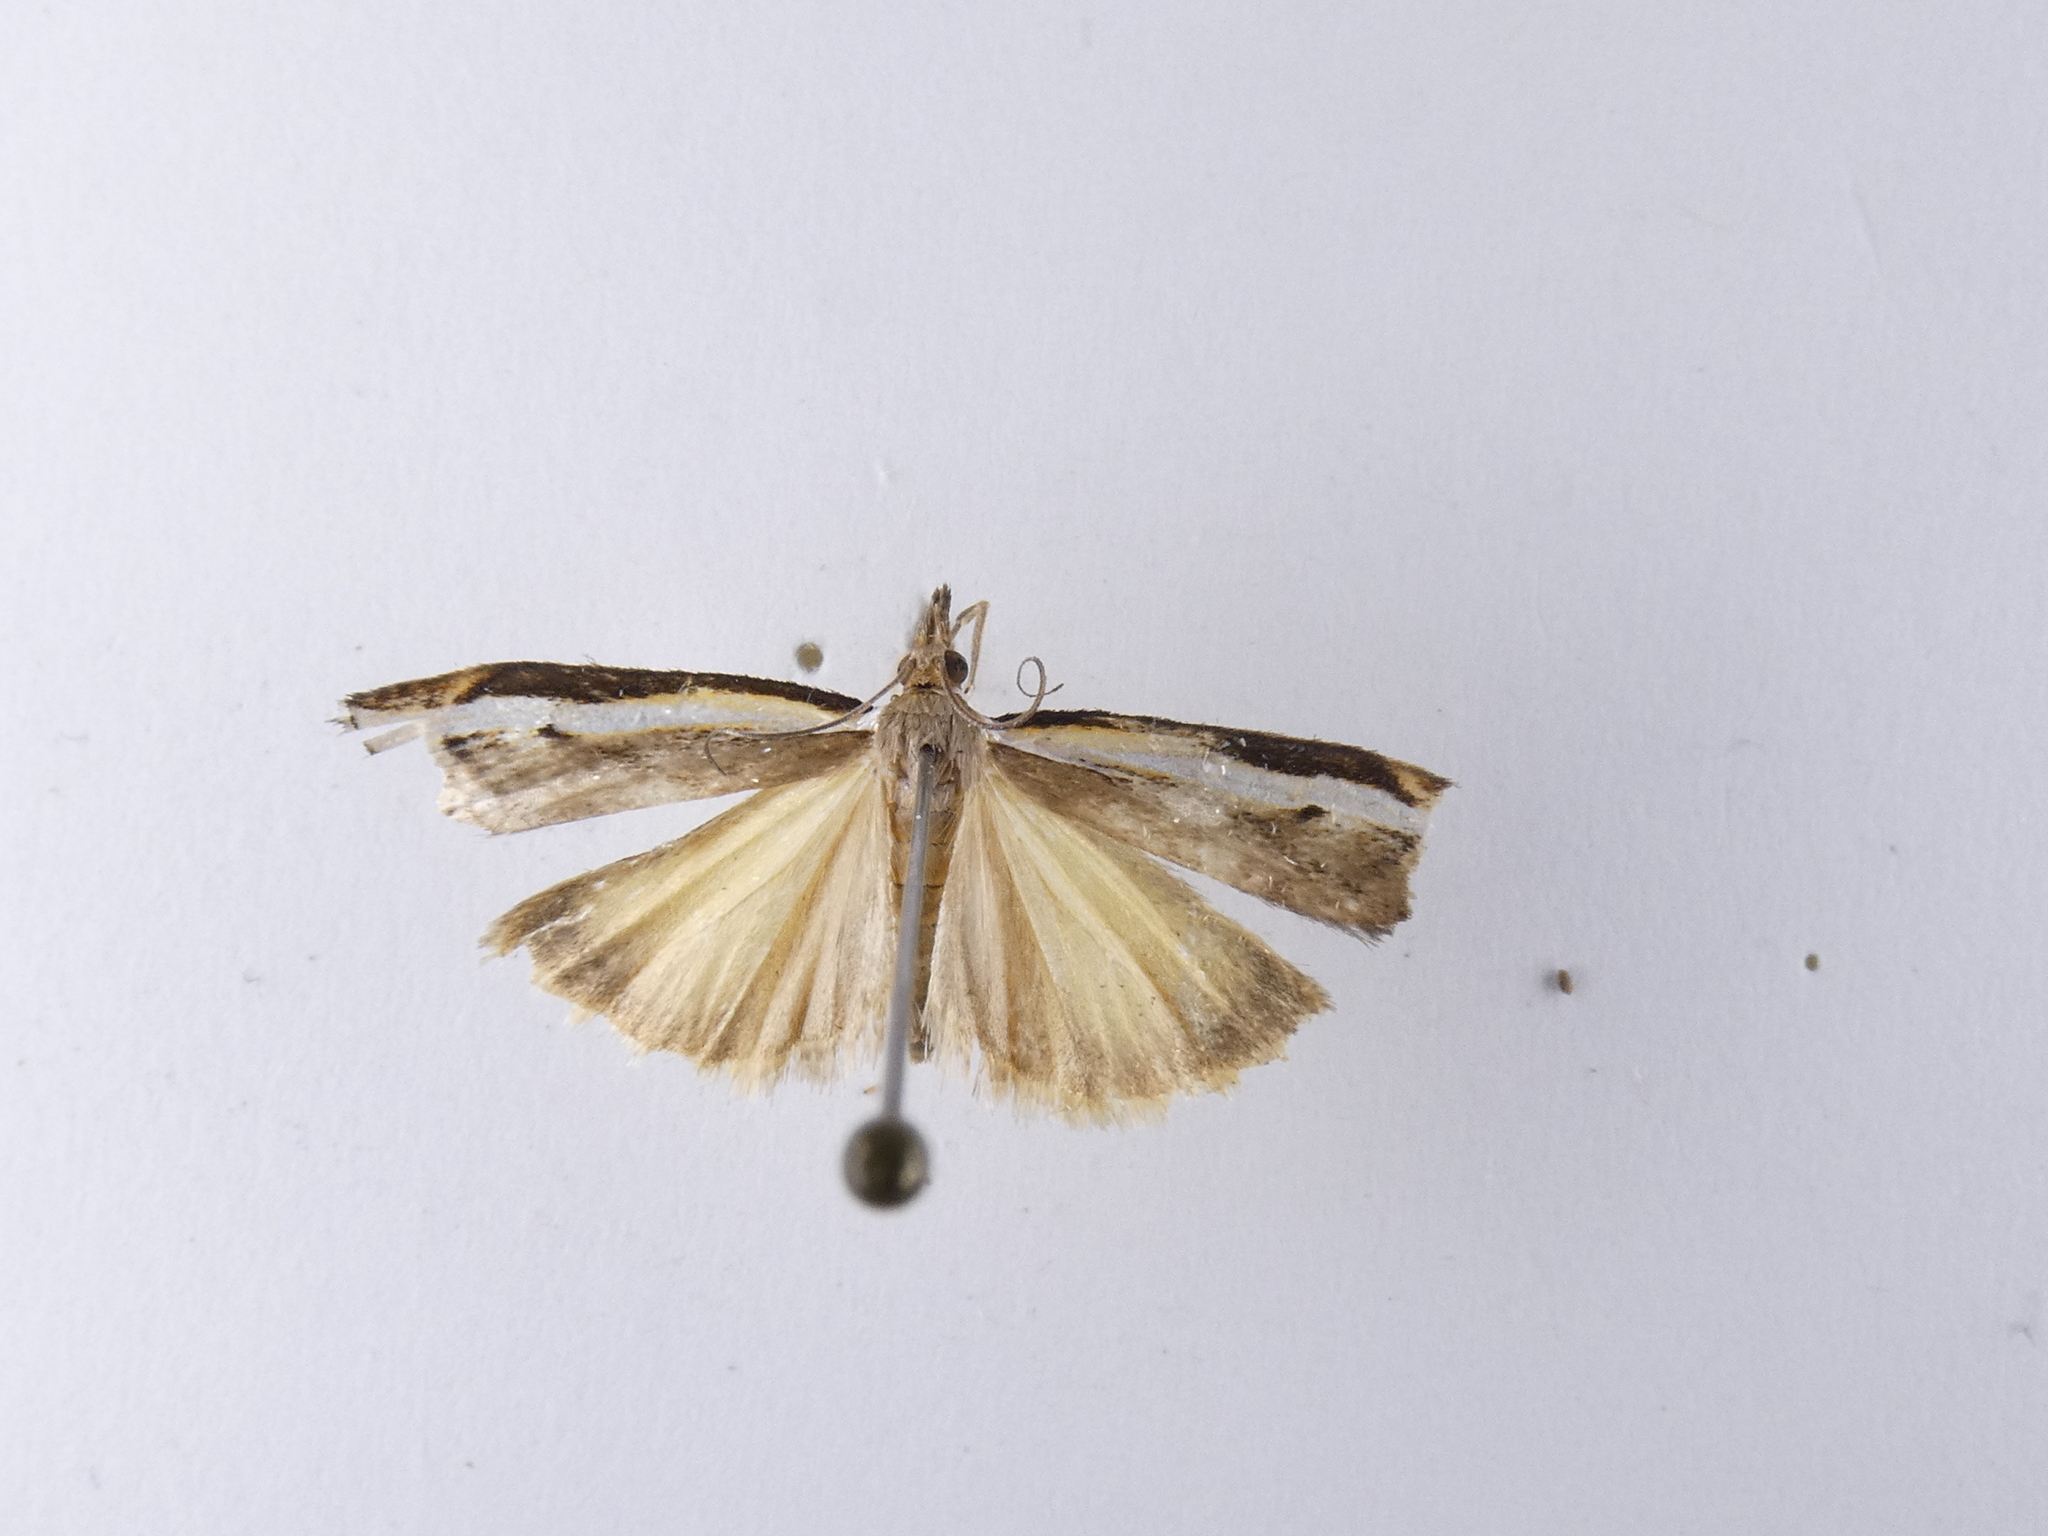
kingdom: Animalia
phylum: Arthropoda
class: Insecta
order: Lepidoptera
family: Crambidae
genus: Orocrambus
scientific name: Orocrambus flexuosellus
